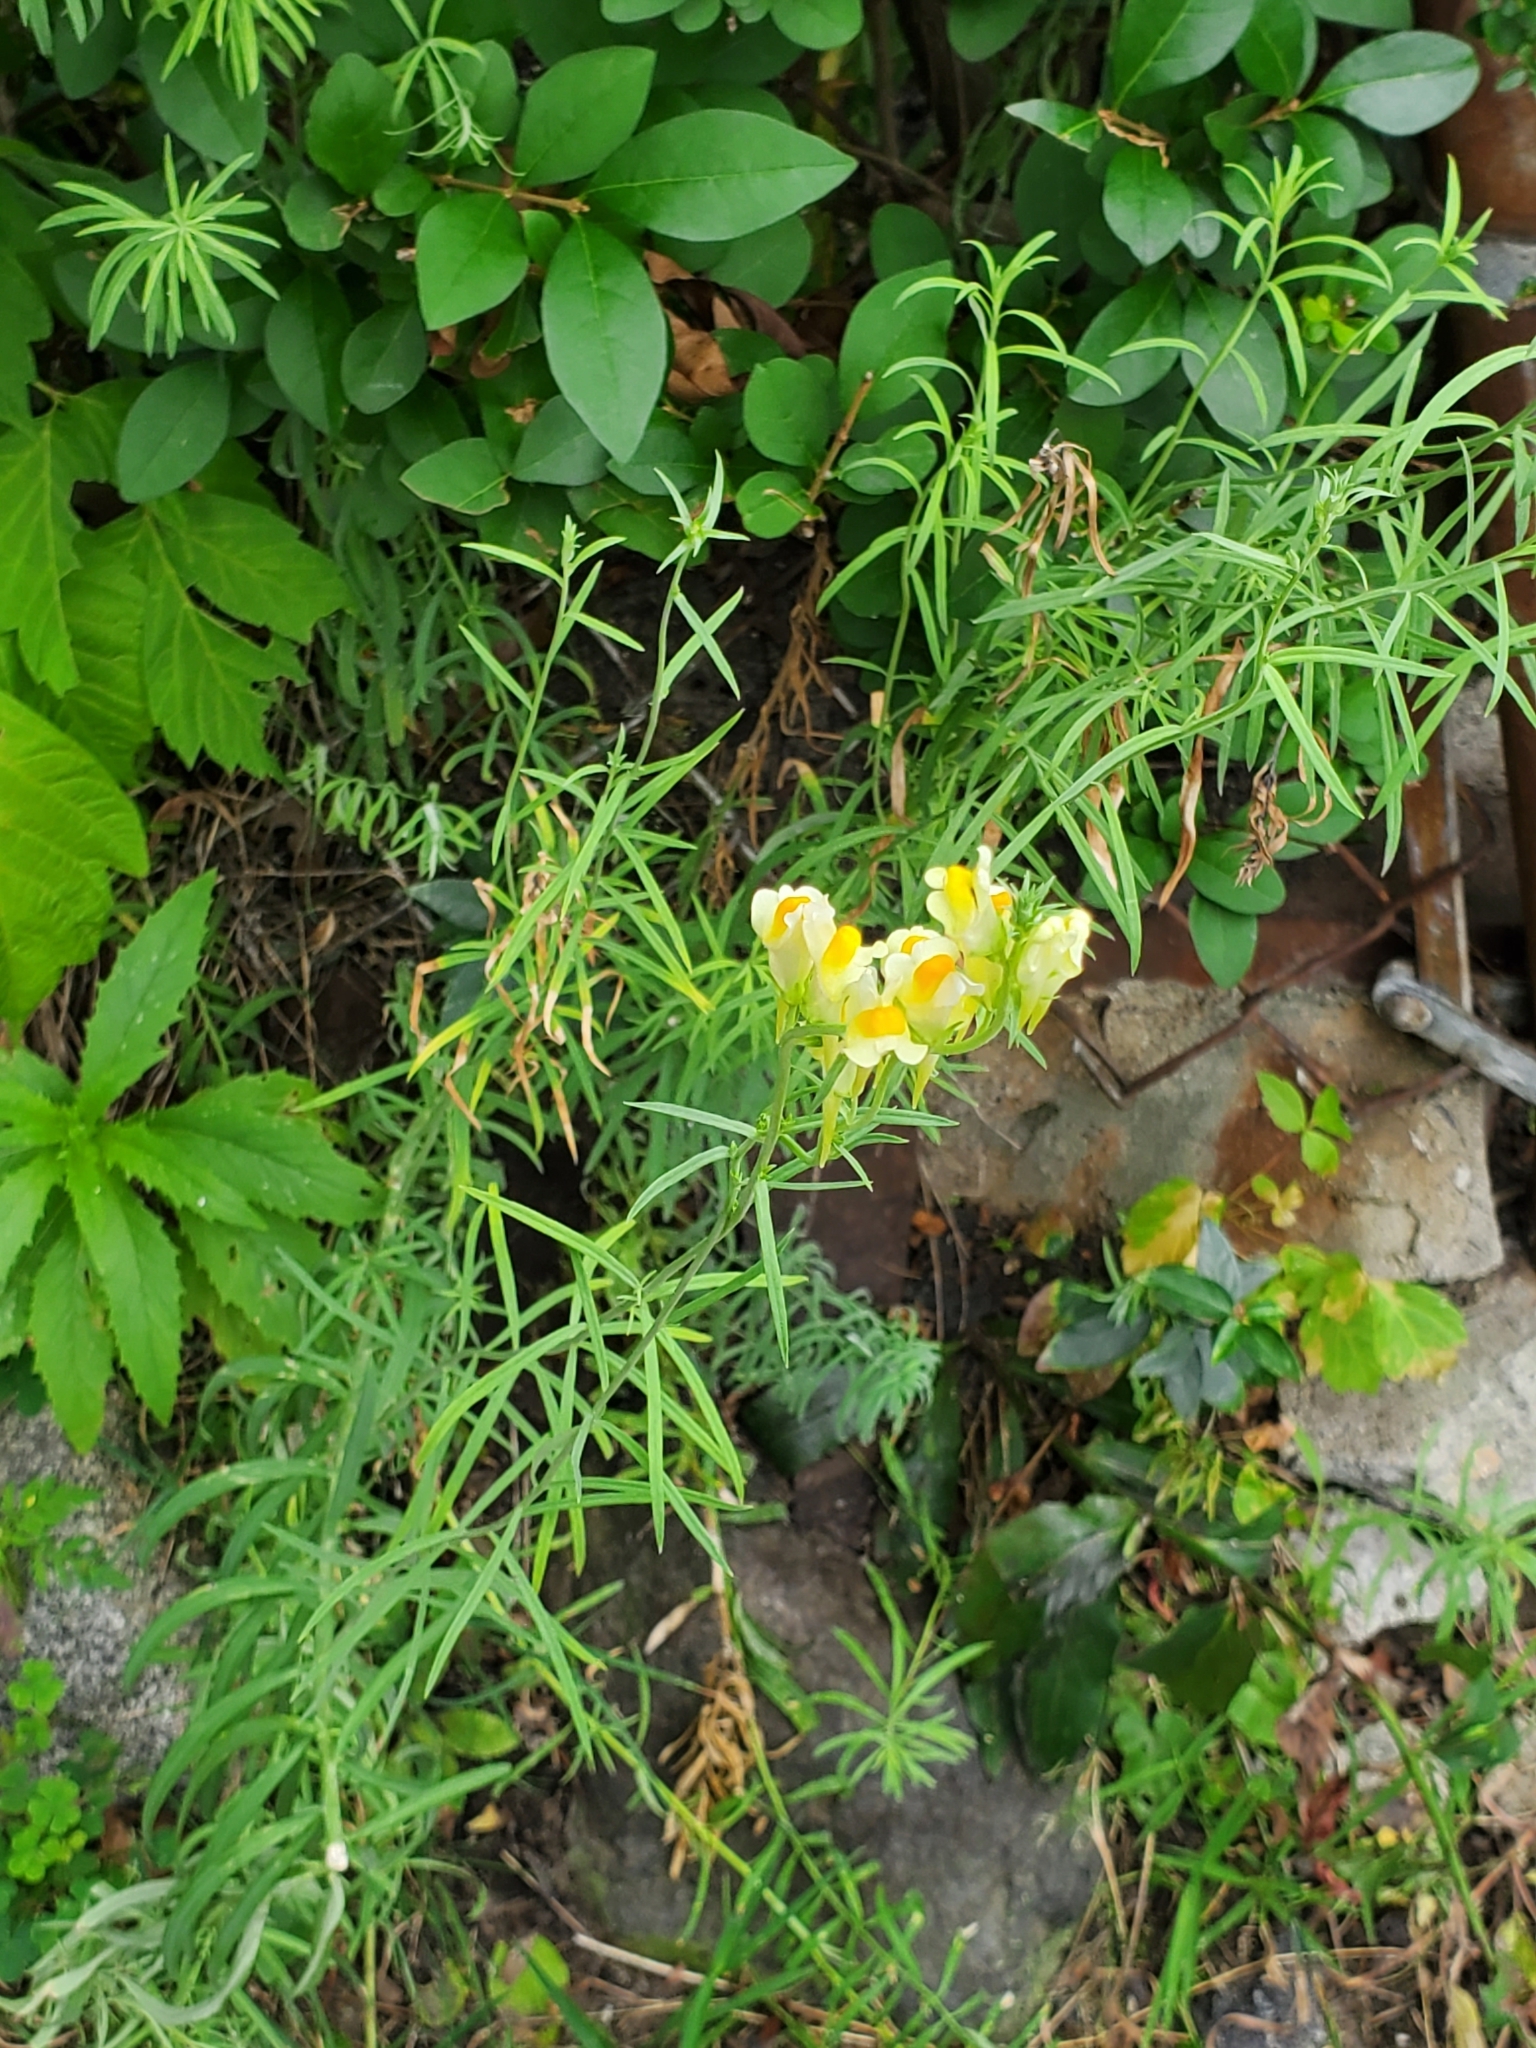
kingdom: Plantae
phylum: Tracheophyta
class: Magnoliopsida
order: Lamiales
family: Plantaginaceae
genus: Linaria
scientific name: Linaria vulgaris
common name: Butter and eggs
